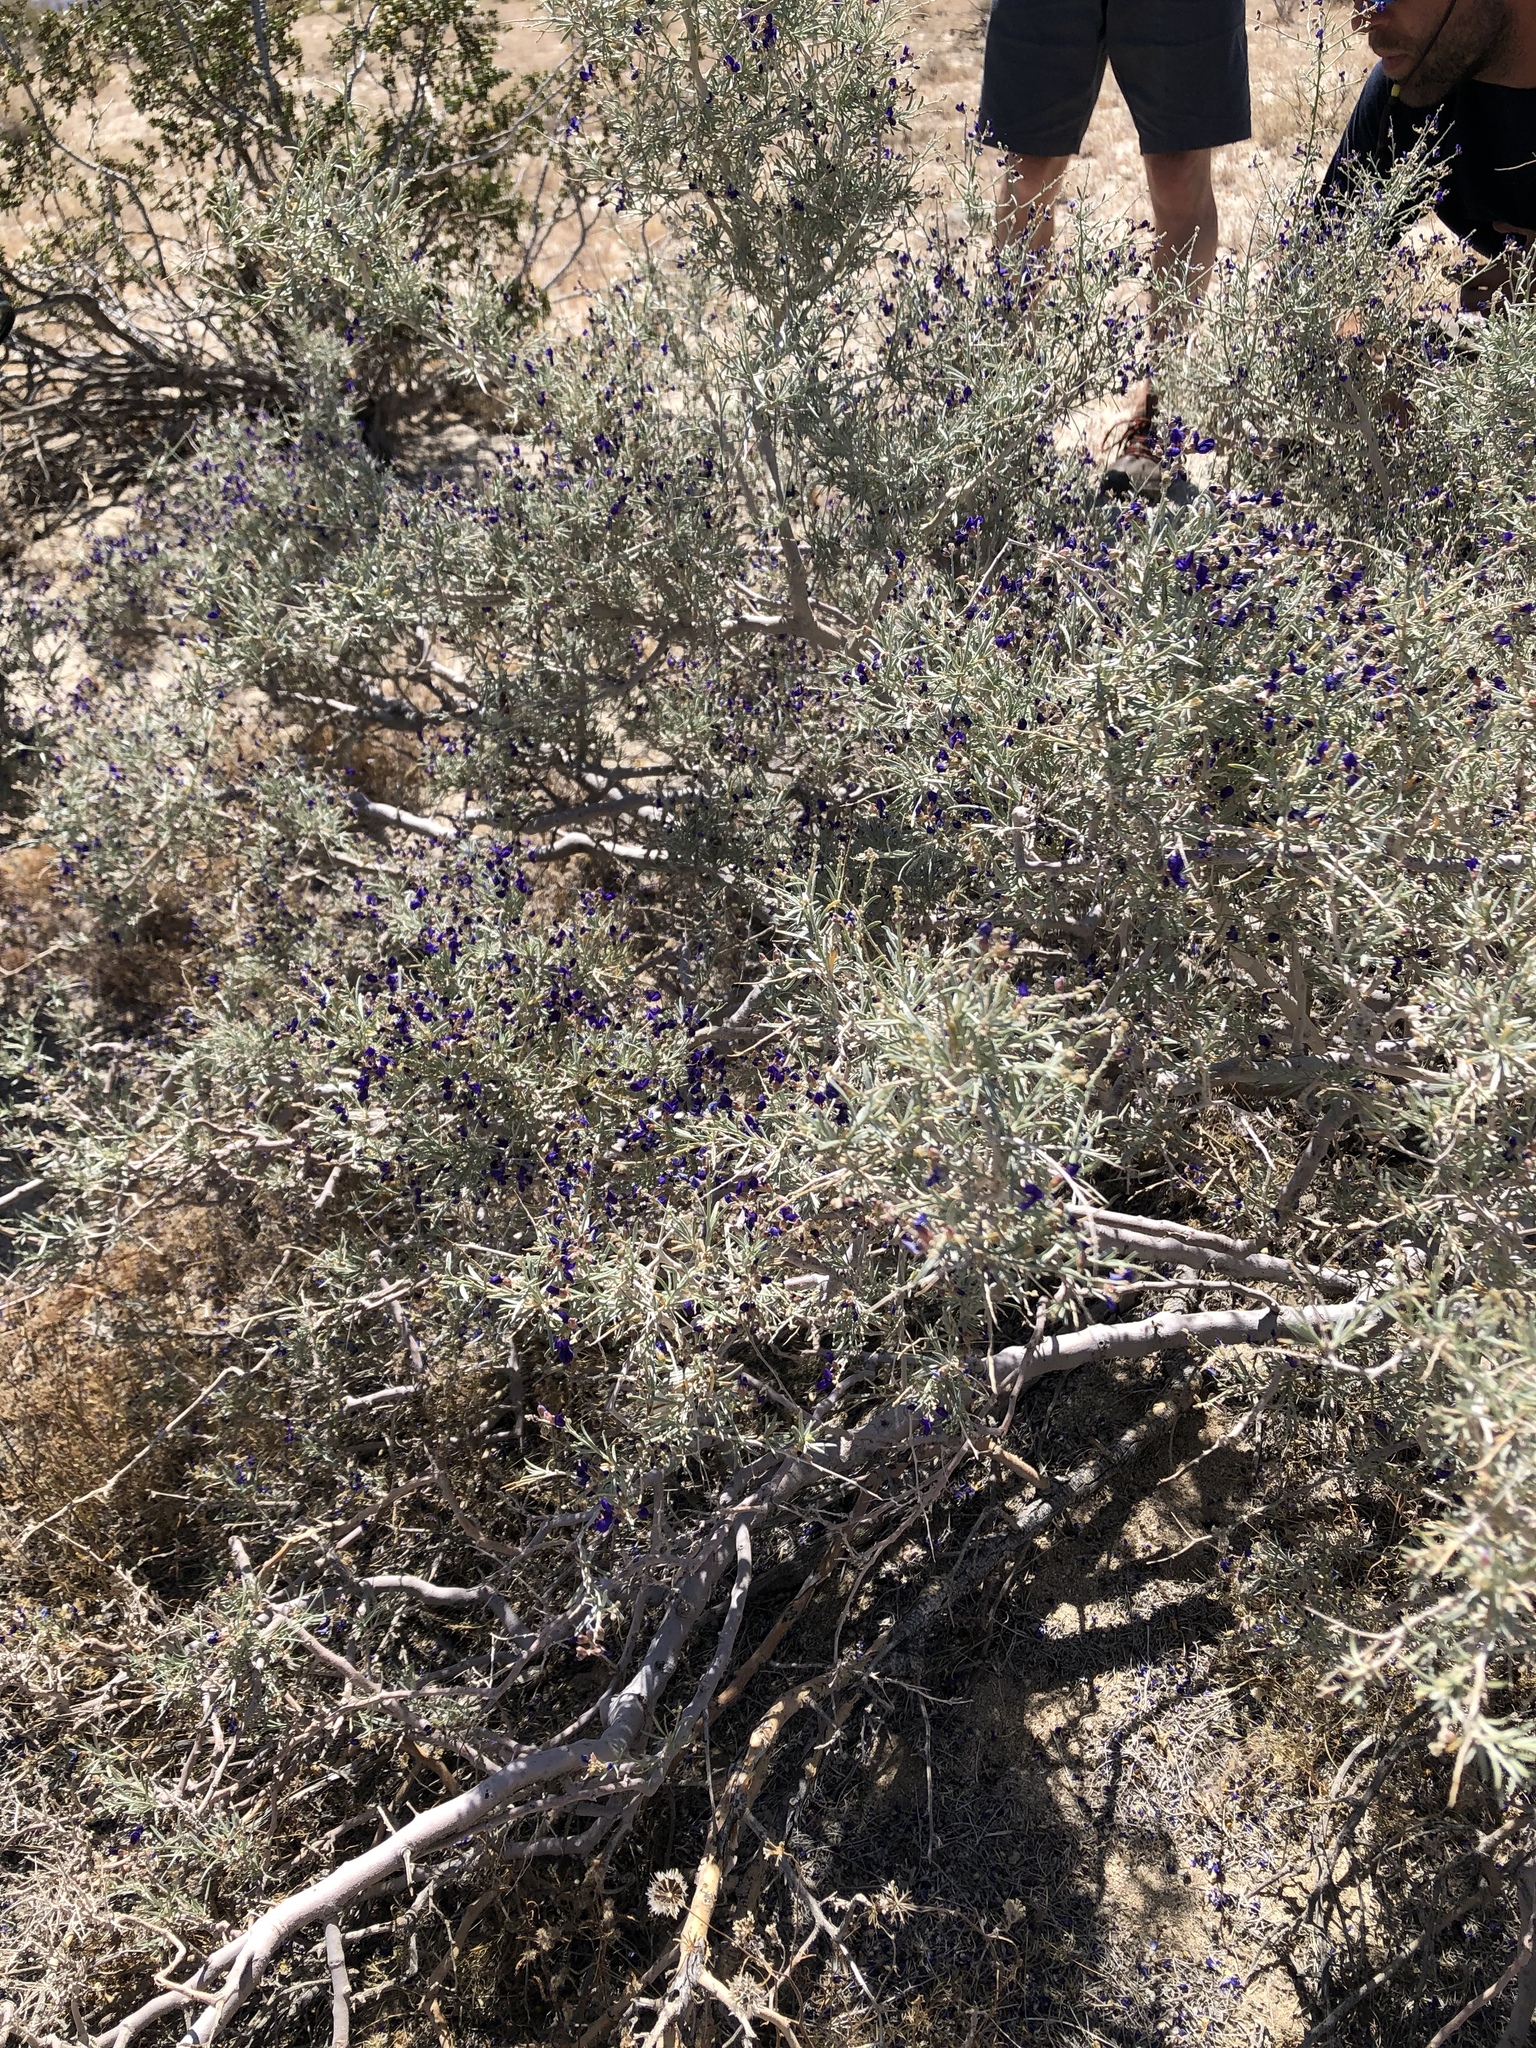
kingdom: Plantae
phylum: Tracheophyta
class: Magnoliopsida
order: Fabales
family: Fabaceae
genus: Psorothamnus
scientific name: Psorothamnus schottii
